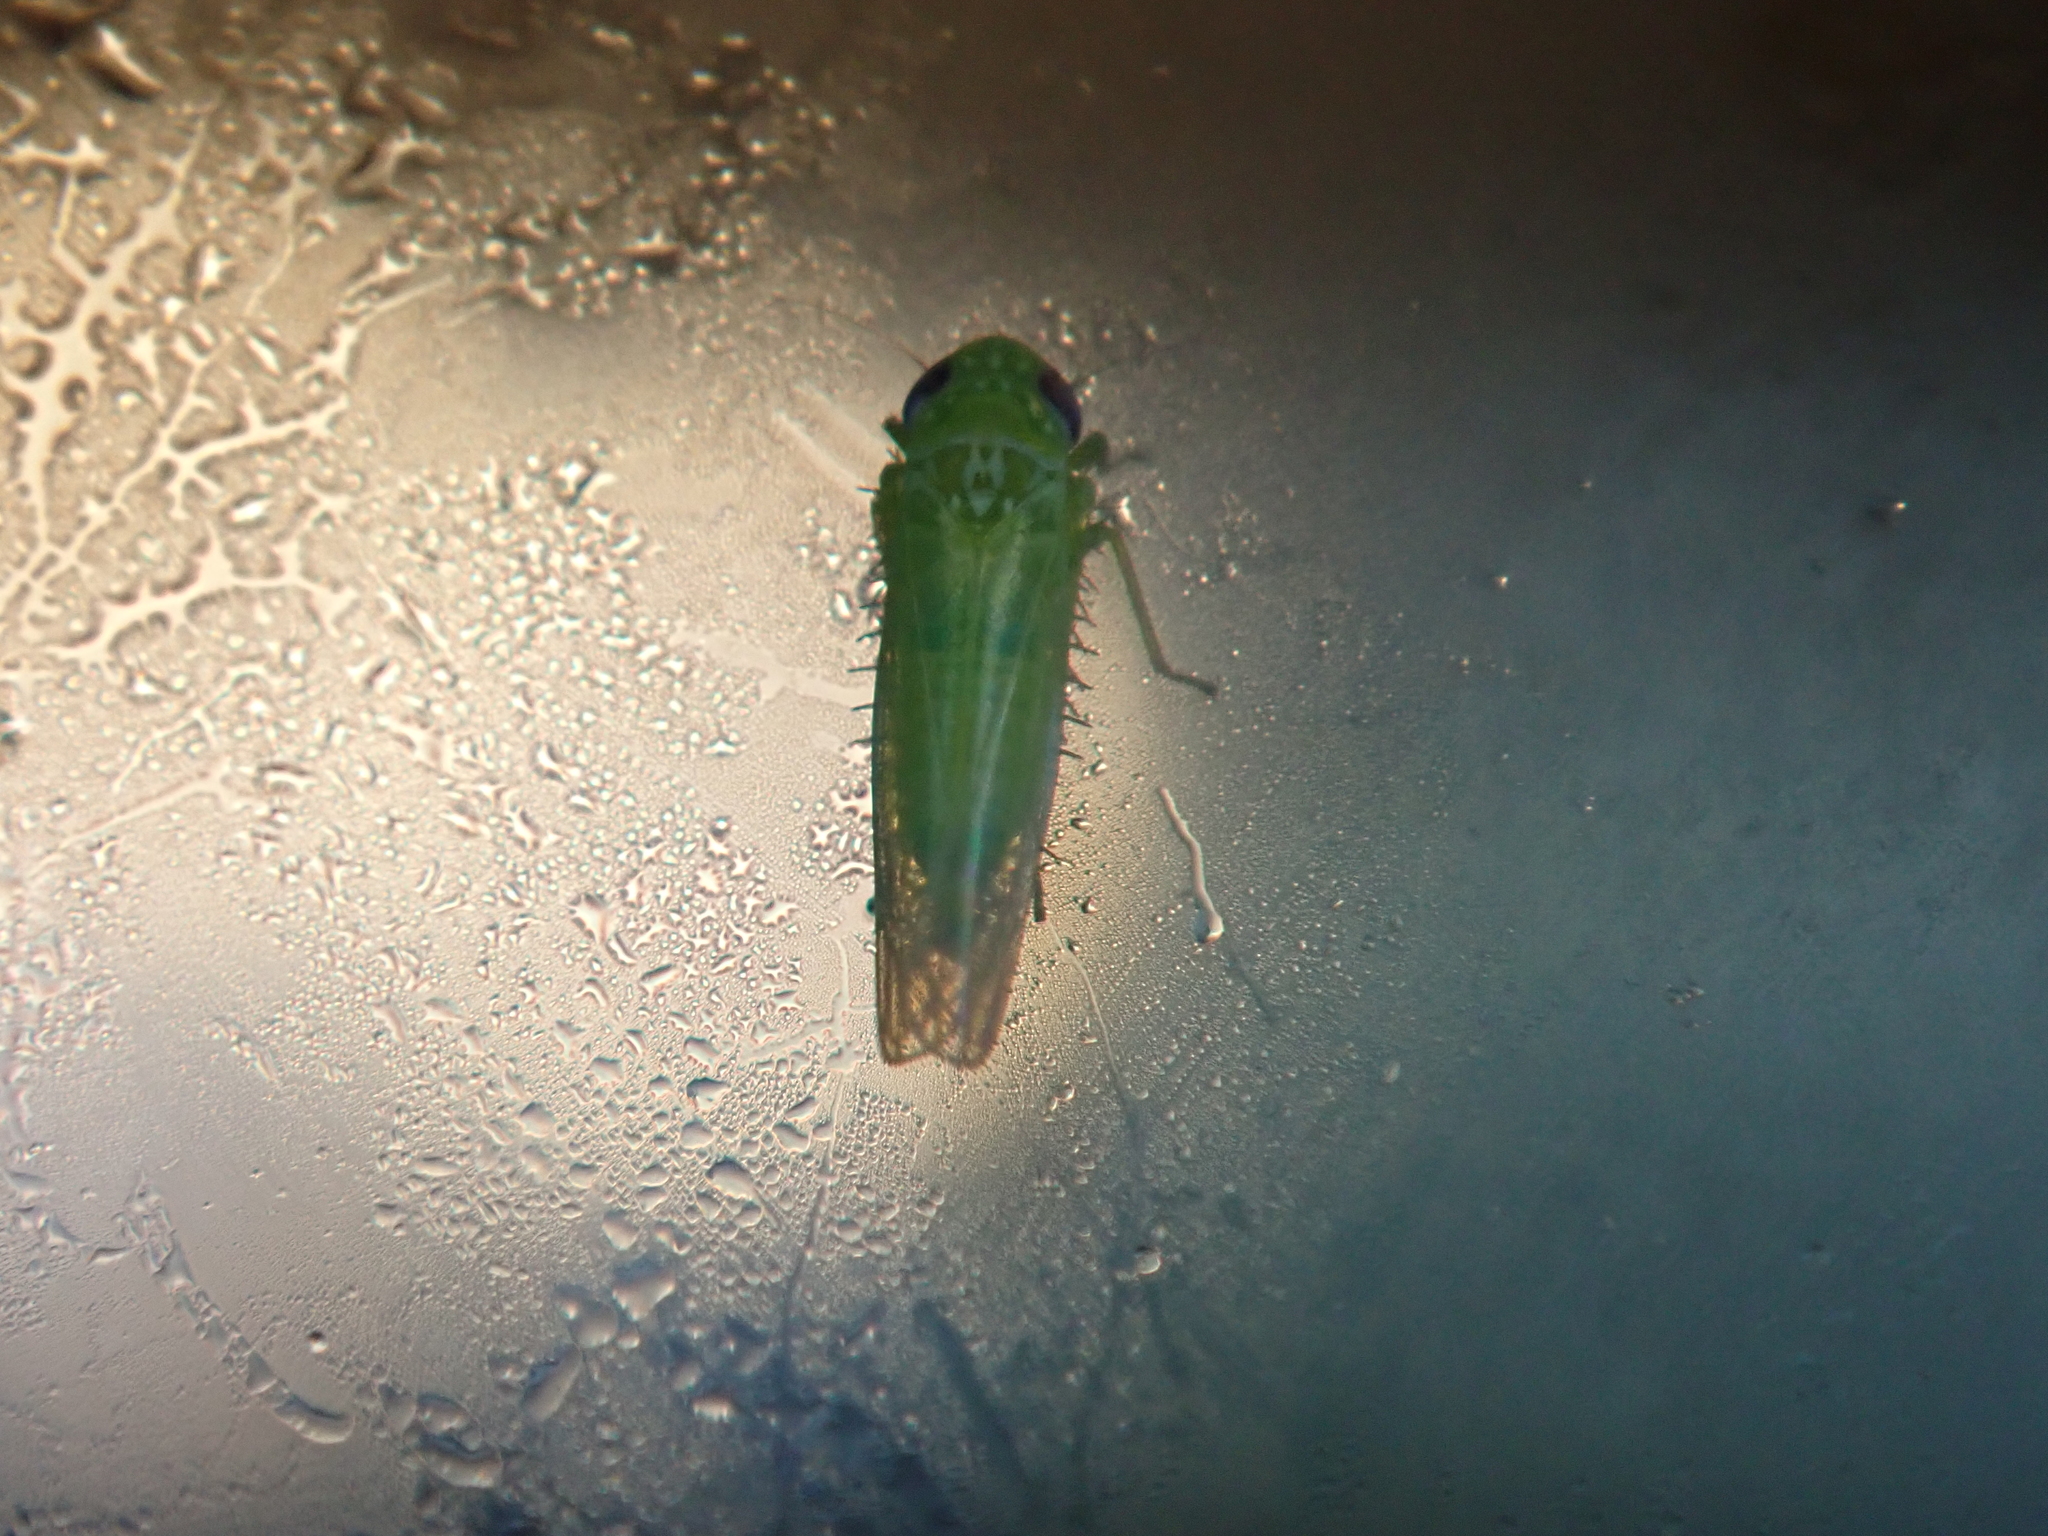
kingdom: Animalia
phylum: Arthropoda
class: Insecta
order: Hemiptera
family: Cicadellidae
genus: Empoasca
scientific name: Empoasca fabae
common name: Potato leafhopper
